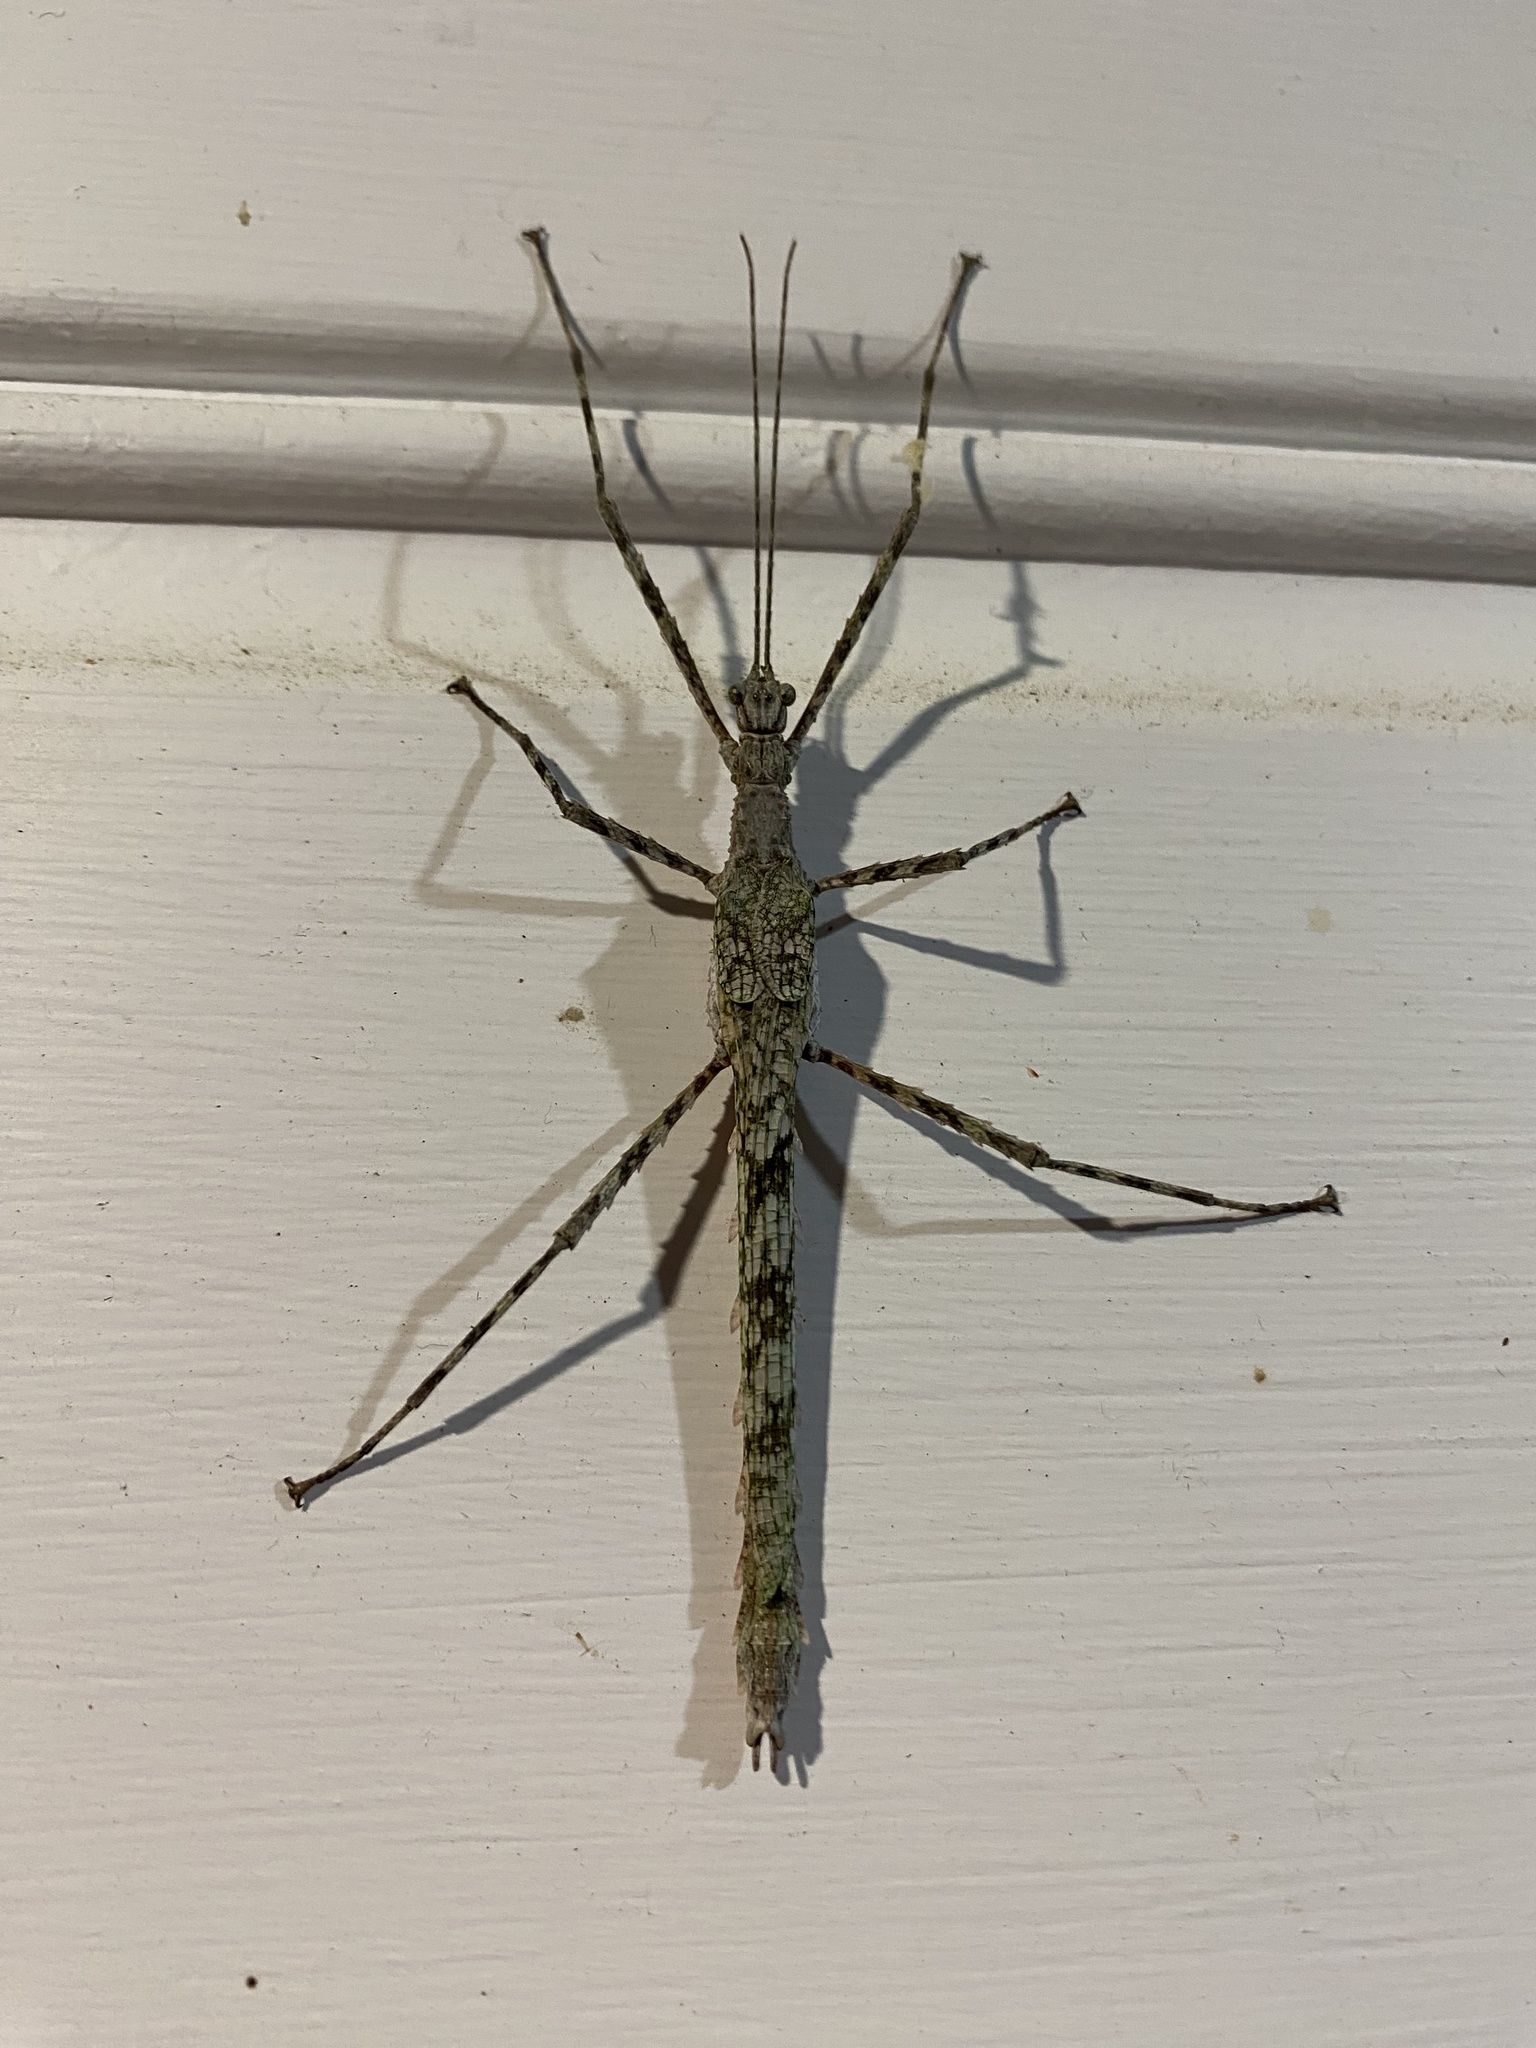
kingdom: Animalia
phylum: Arthropoda
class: Insecta
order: Phasmida
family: Phasmatidae
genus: Xeroderus
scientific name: Xeroderus kirbyi
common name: Kirby's stick-insect
